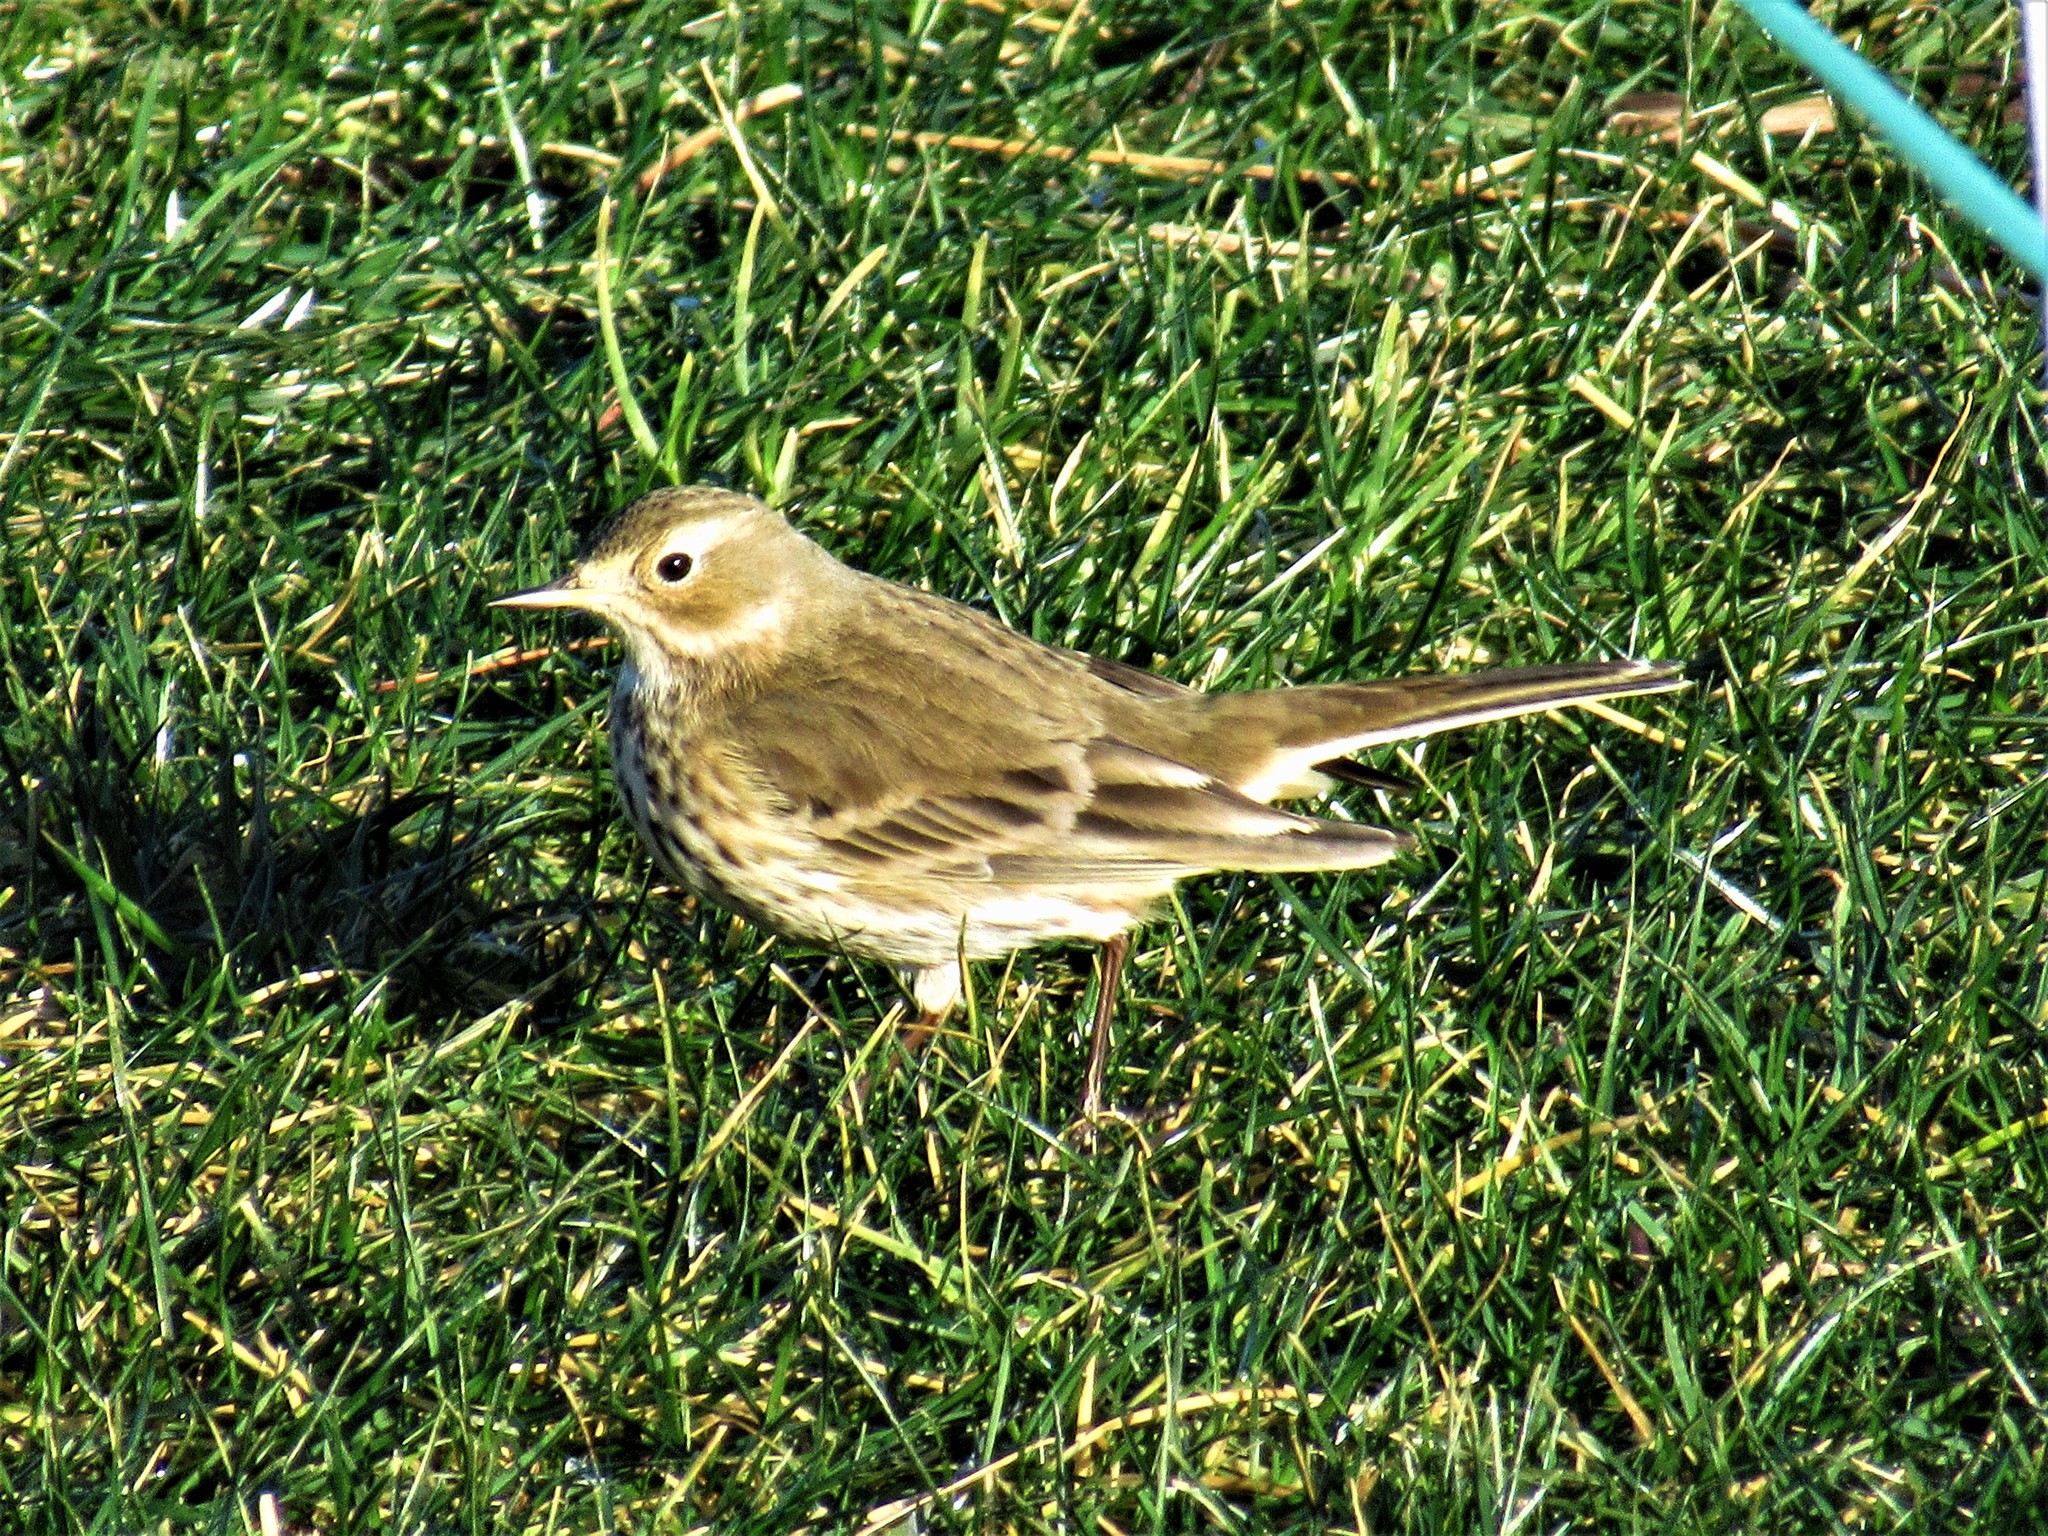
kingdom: Animalia
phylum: Chordata
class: Aves
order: Passeriformes
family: Motacillidae
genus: Anthus
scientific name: Anthus rubescens
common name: Buff-bellied pipit
